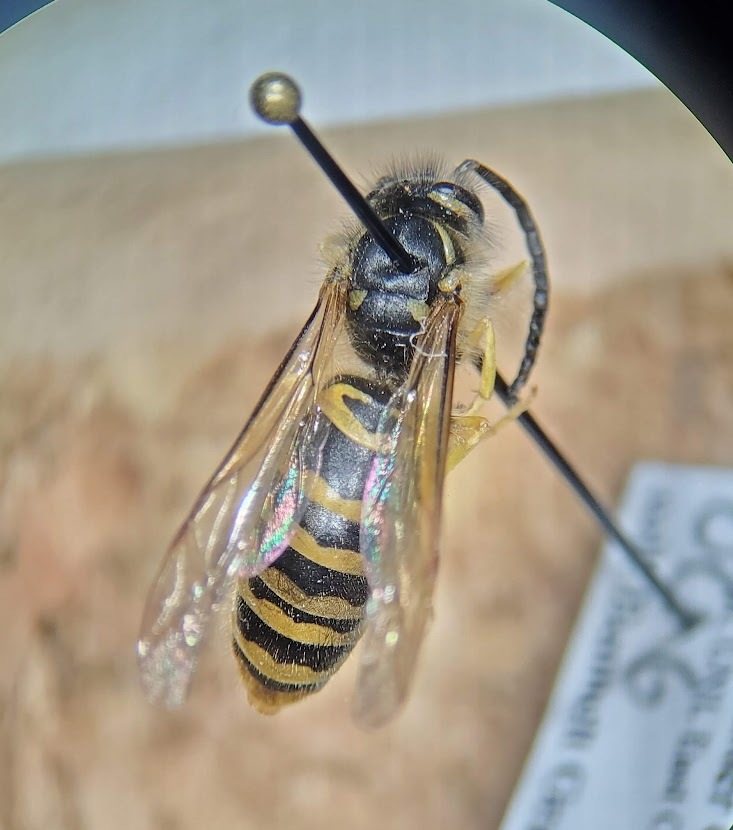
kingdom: Animalia
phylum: Arthropoda
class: Insecta
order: Hymenoptera
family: Vespidae
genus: Vespula
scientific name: Vespula maculifrons
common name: Eastern yellowjacket
